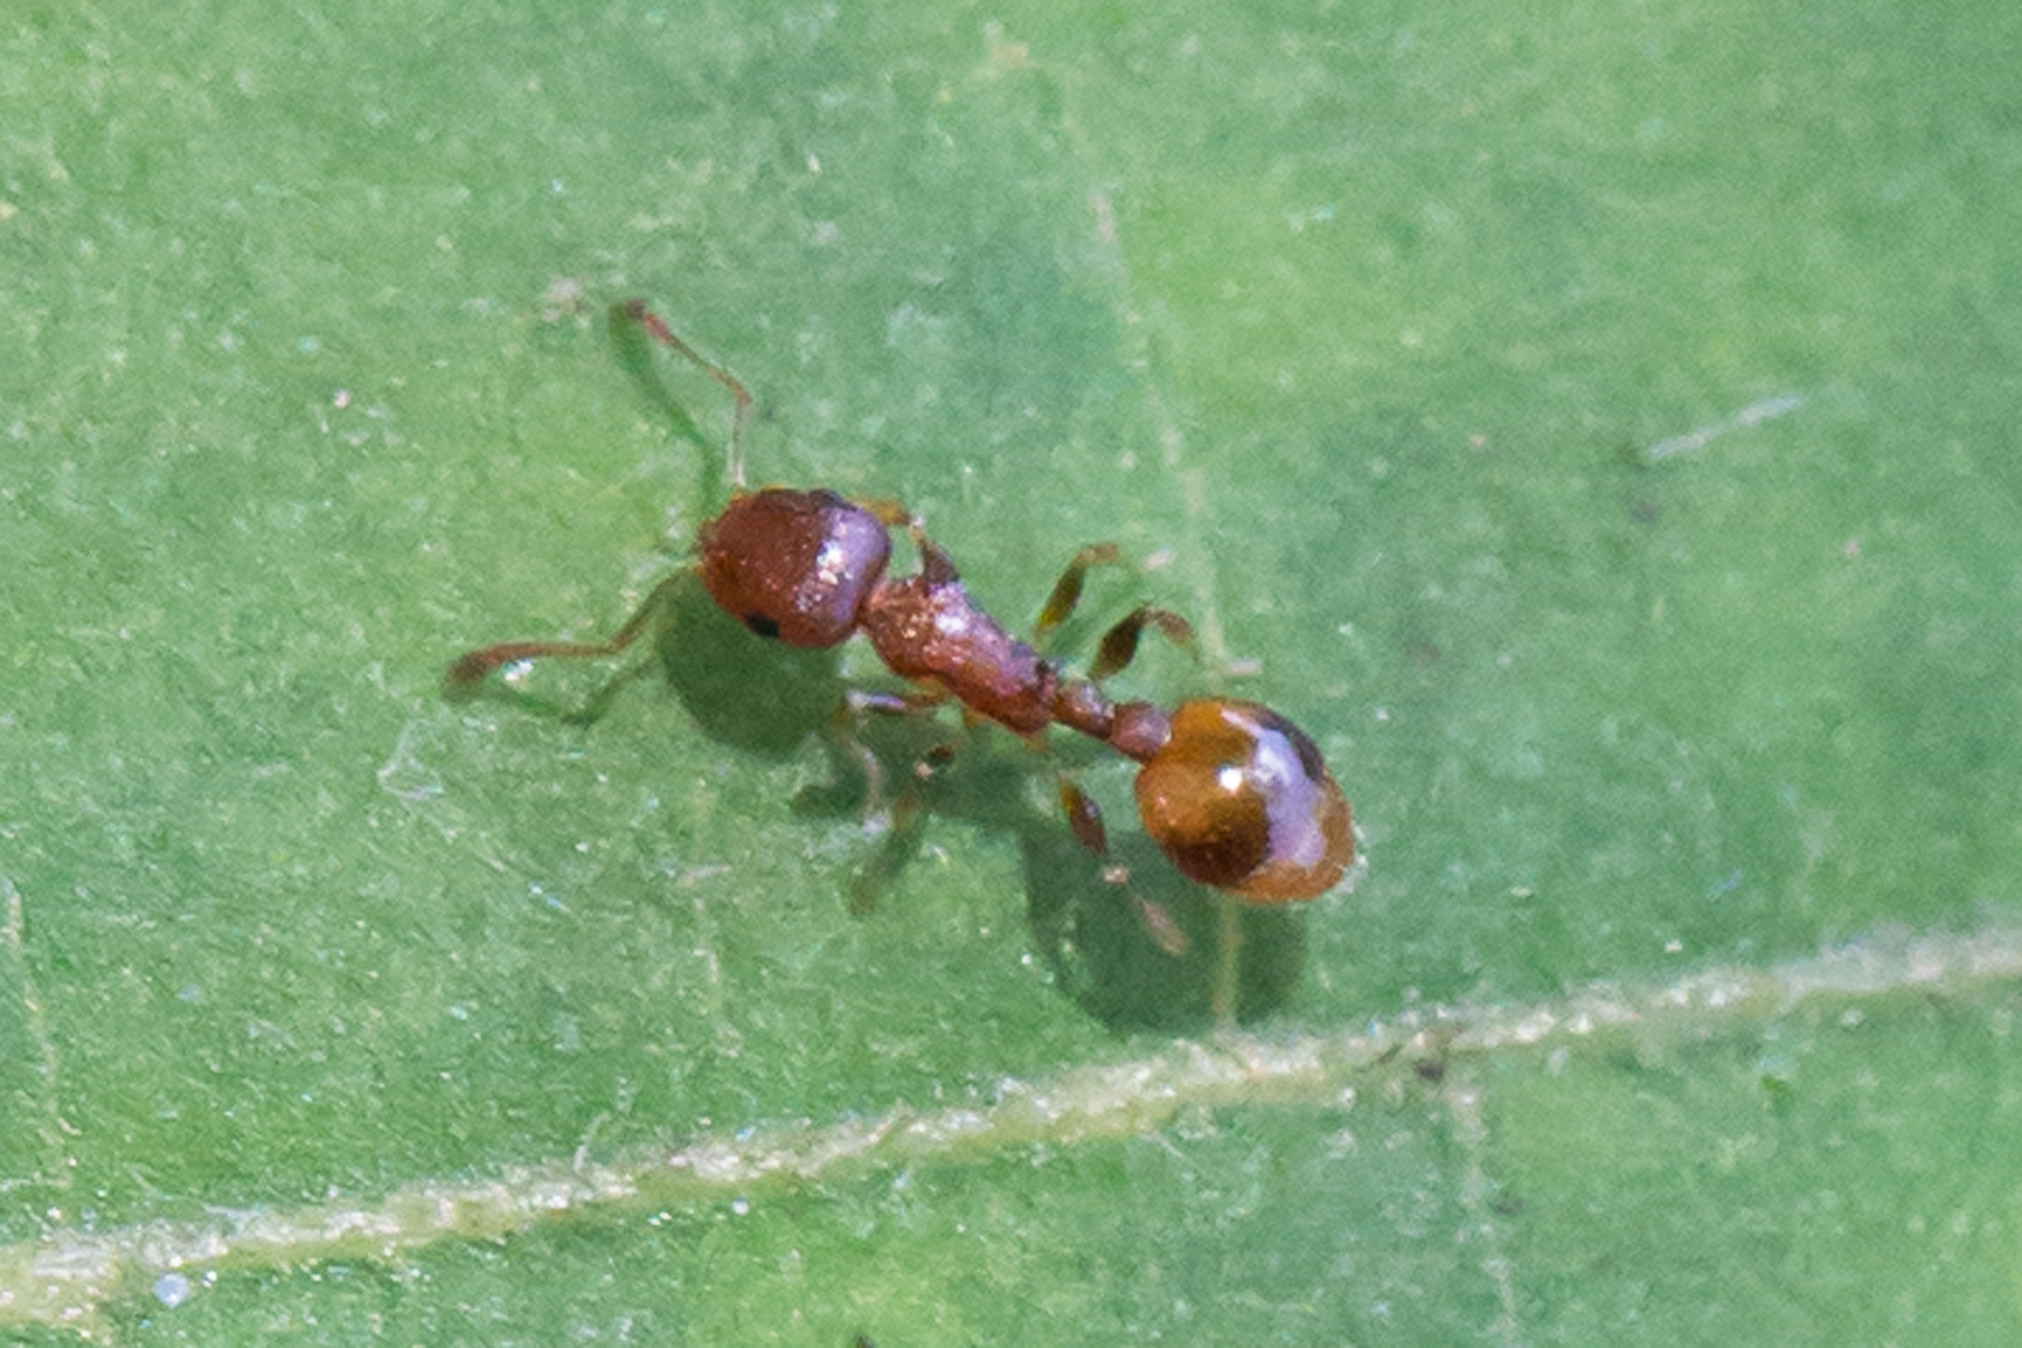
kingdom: Animalia
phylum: Arthropoda
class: Insecta
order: Hymenoptera
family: Formicidae
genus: Temnothorax
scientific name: Temnothorax curvispinosus
